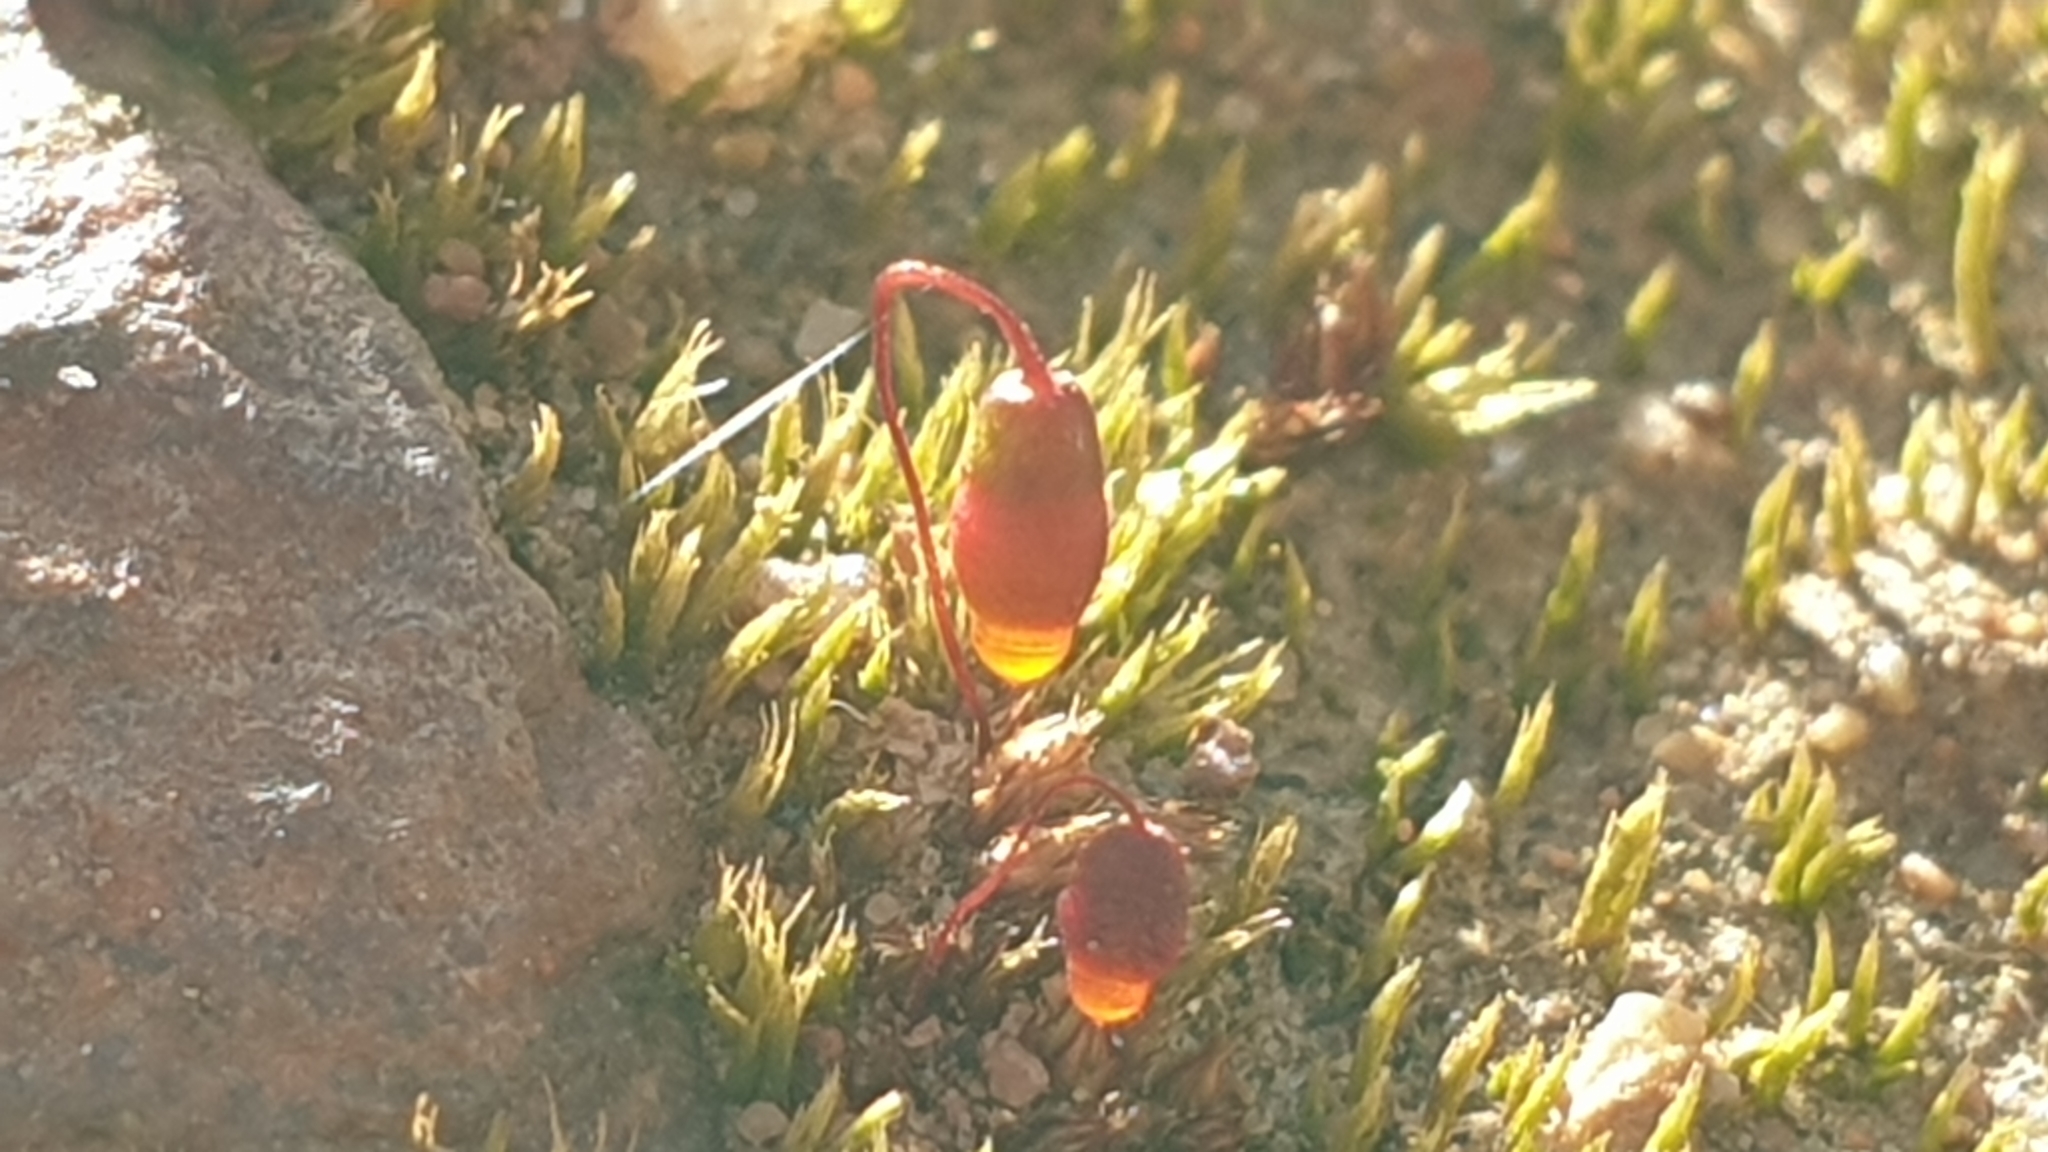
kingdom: Plantae
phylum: Bryophyta
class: Bryopsida
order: Bryales
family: Bryaceae
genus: Gemmabryum
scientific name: Gemmabryum coronatum
